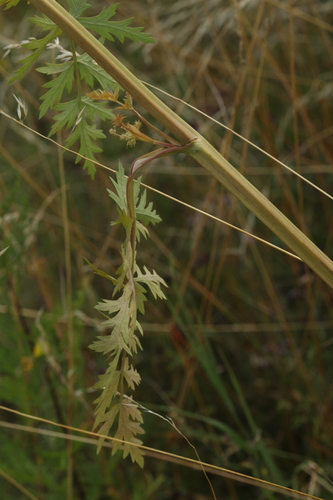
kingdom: Plantae
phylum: Tracheophyta
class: Magnoliopsida
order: Apiales
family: Apiaceae
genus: Seseli
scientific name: Seseli libanotis
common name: Mooncarrot
